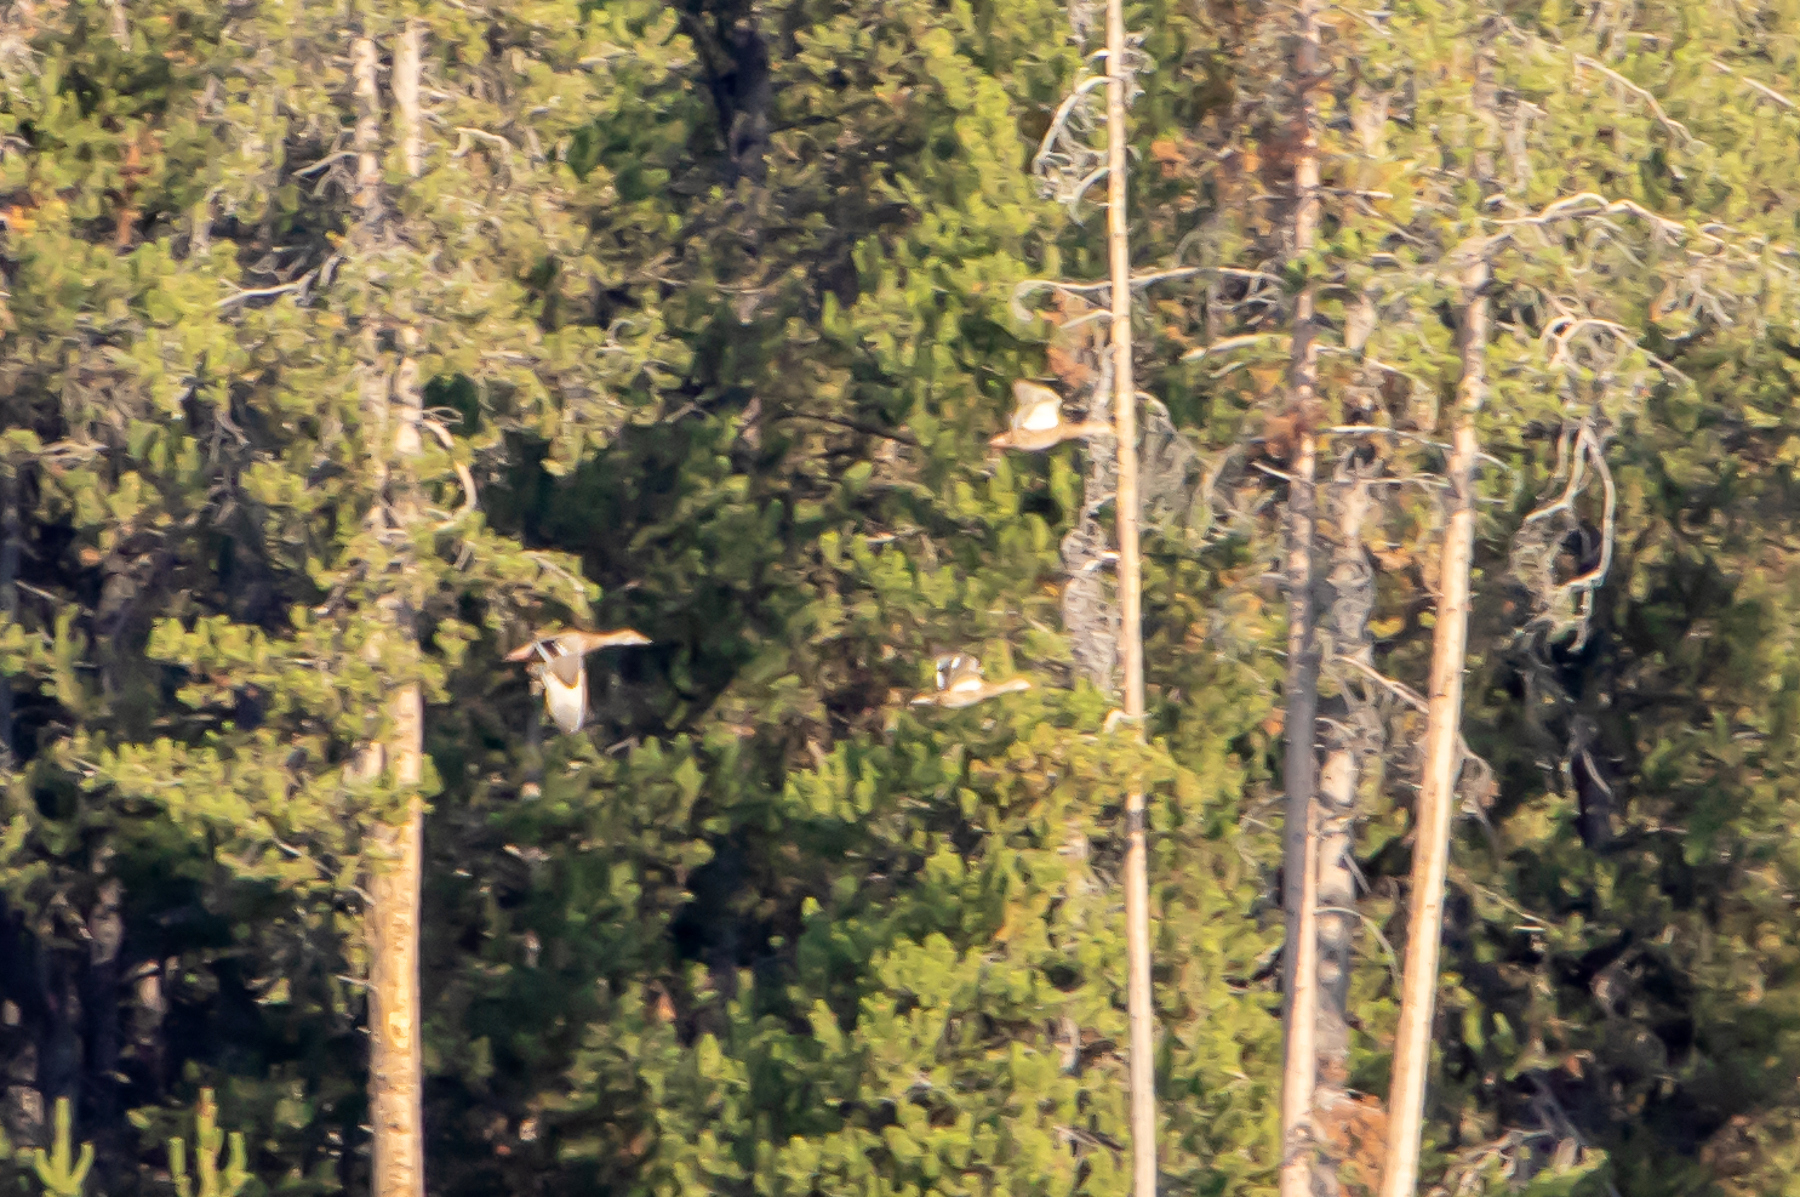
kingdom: Animalia
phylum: Chordata
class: Aves
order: Anseriformes
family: Anatidae
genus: Anas
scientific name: Anas platyrhynchos
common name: Mallard
